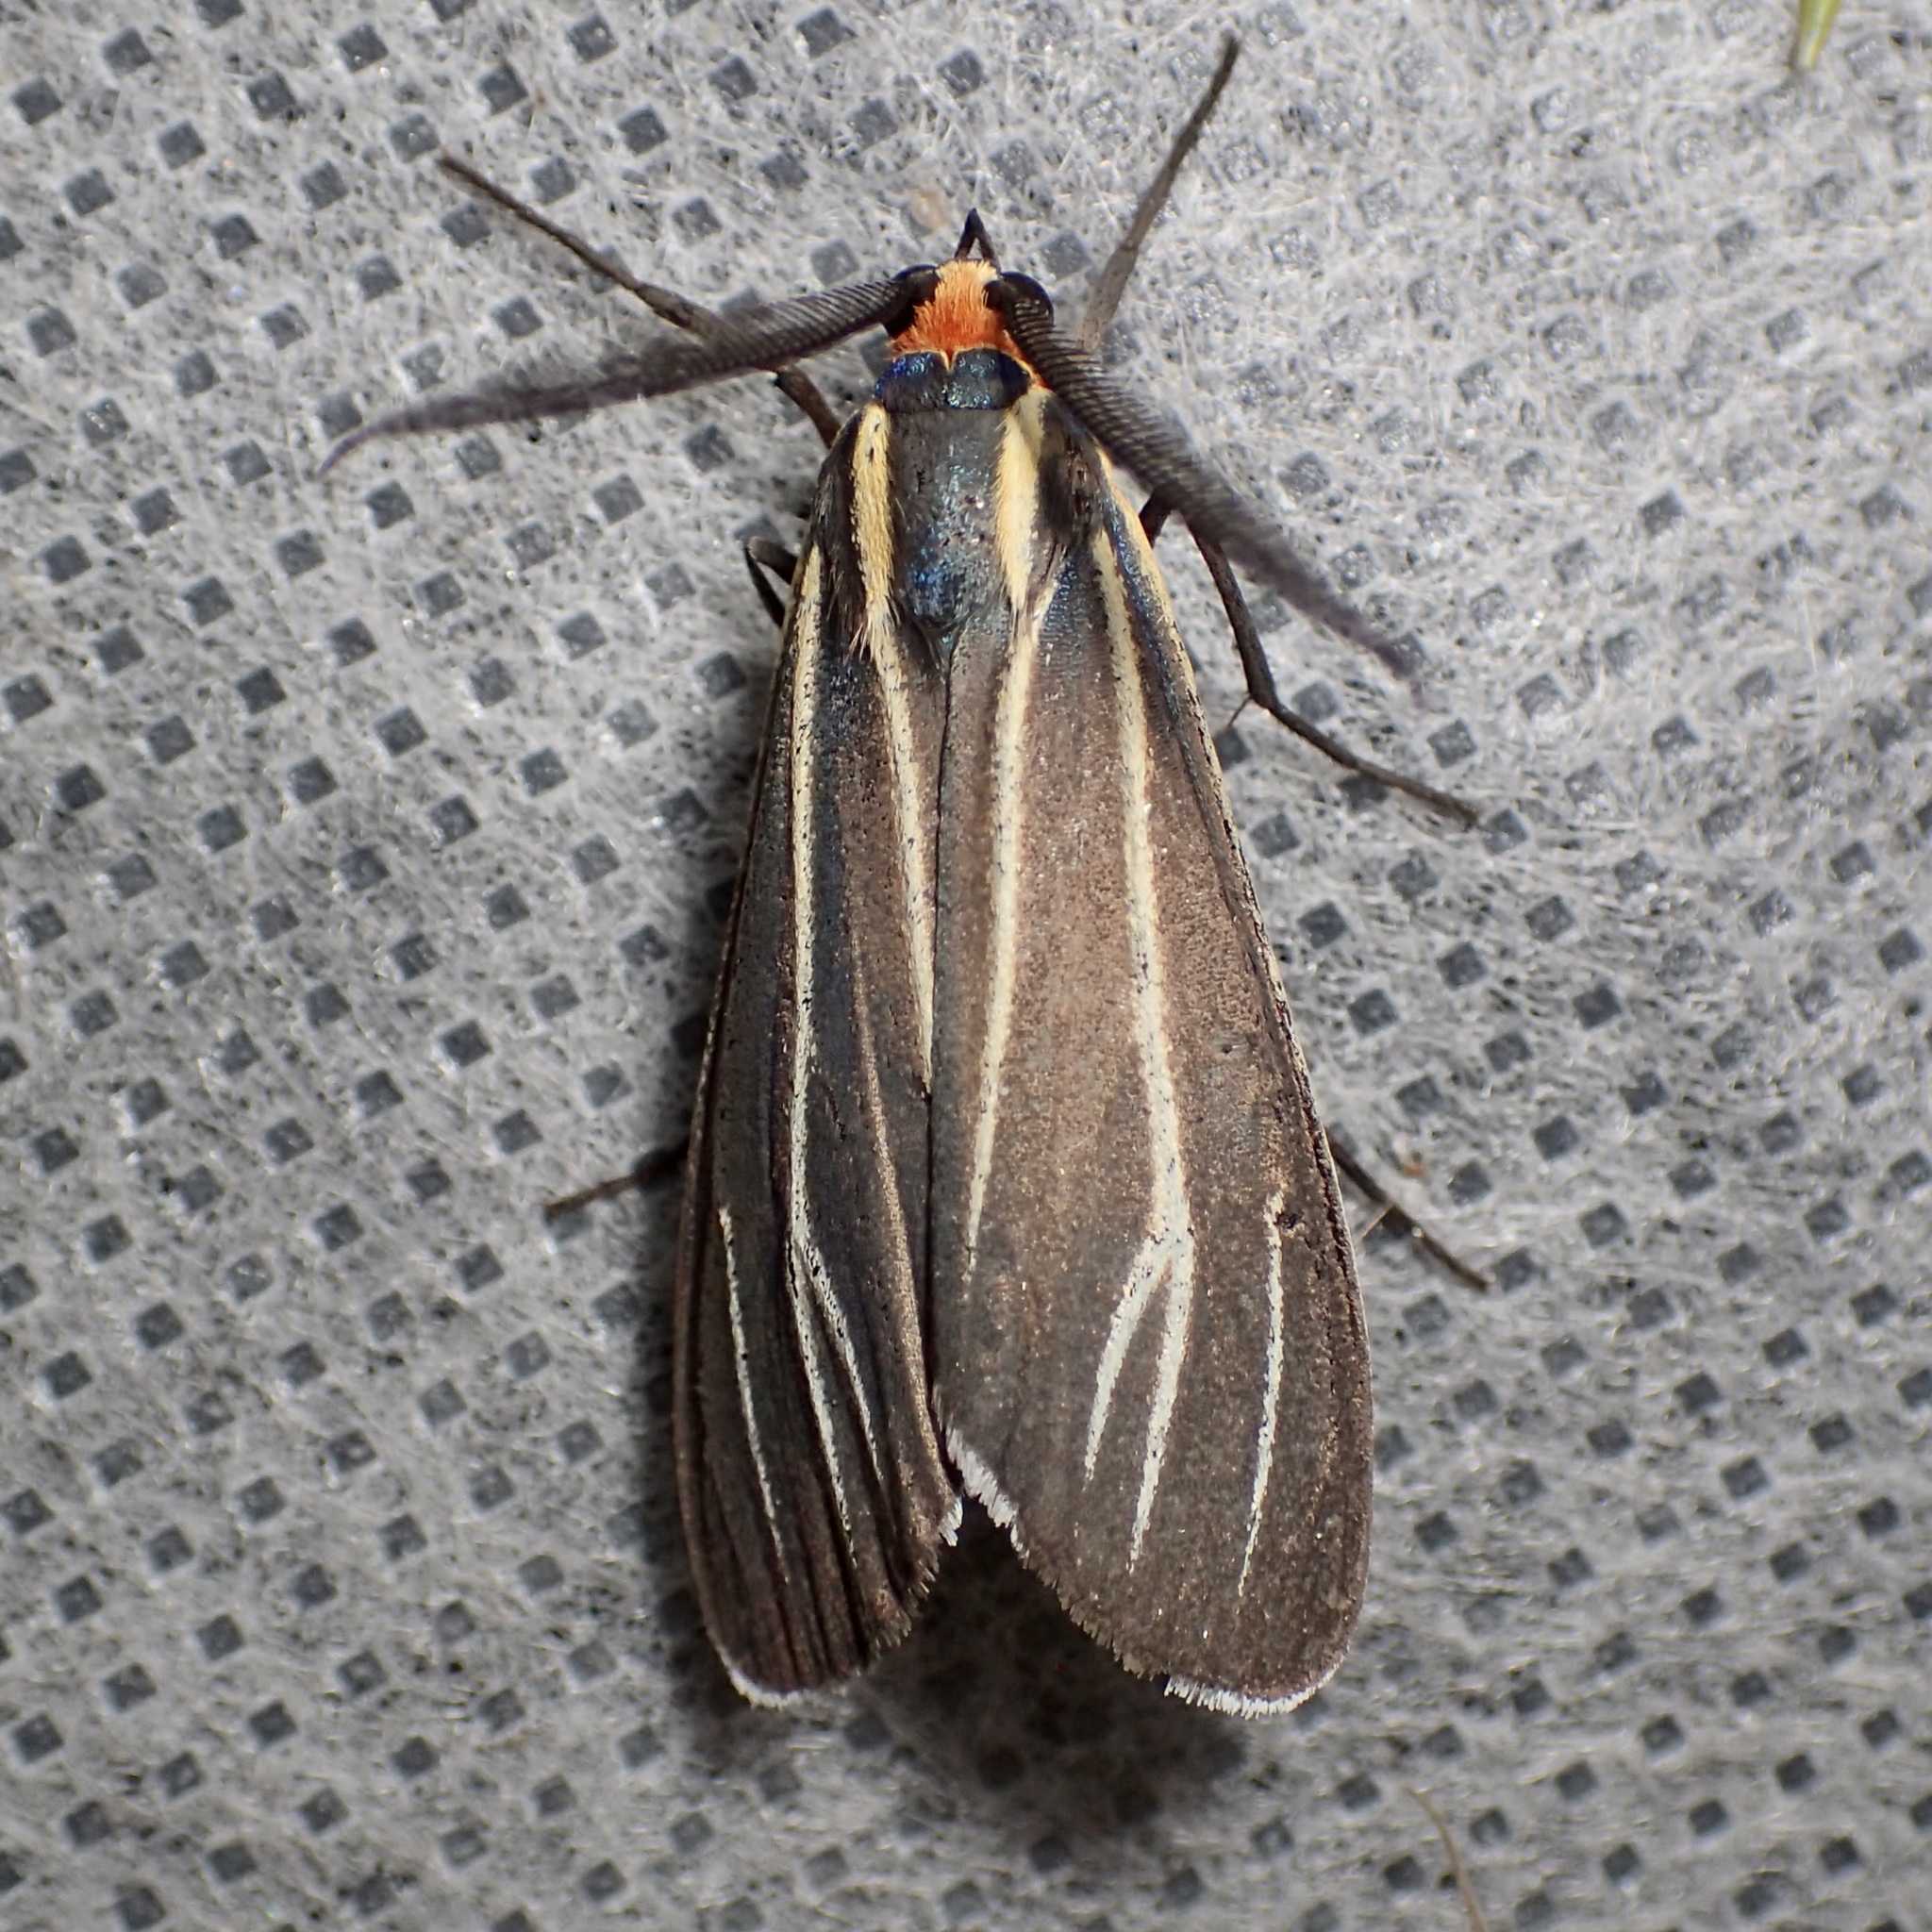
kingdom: Animalia
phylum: Arthropoda
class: Insecta
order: Lepidoptera
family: Erebidae
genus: Ctenucha
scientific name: Ctenucha venosa
